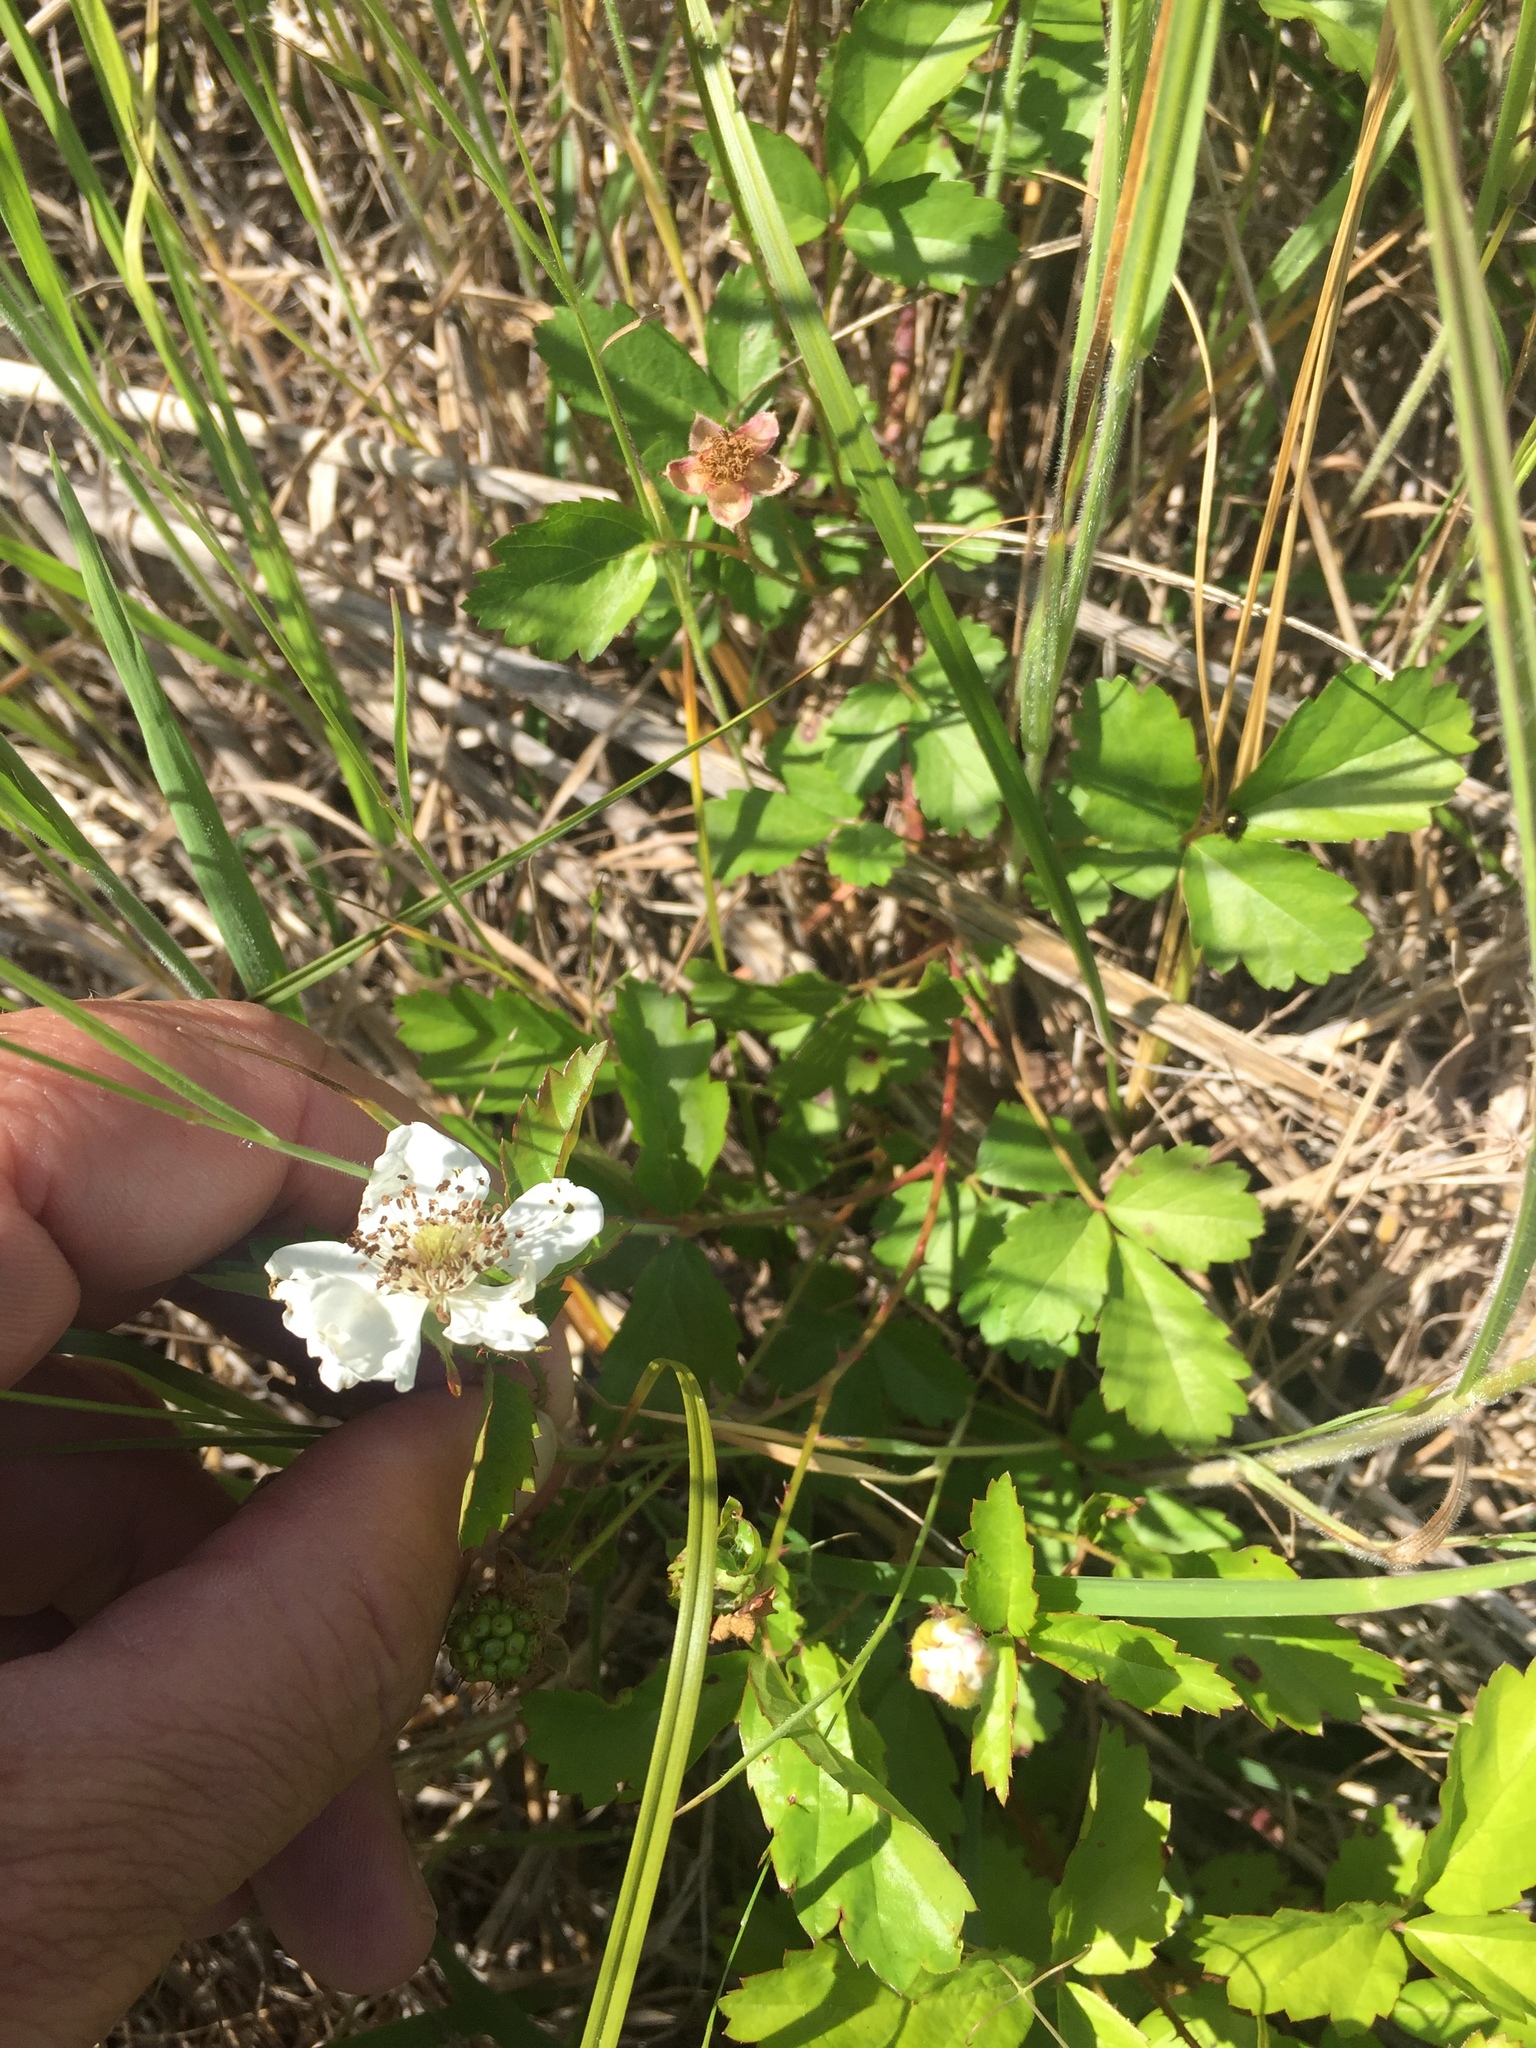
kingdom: Plantae
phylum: Tracheophyta
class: Magnoliopsida
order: Rosales
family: Rosaceae
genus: Rubus
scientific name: Rubus trivialis
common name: Southern dewberry
